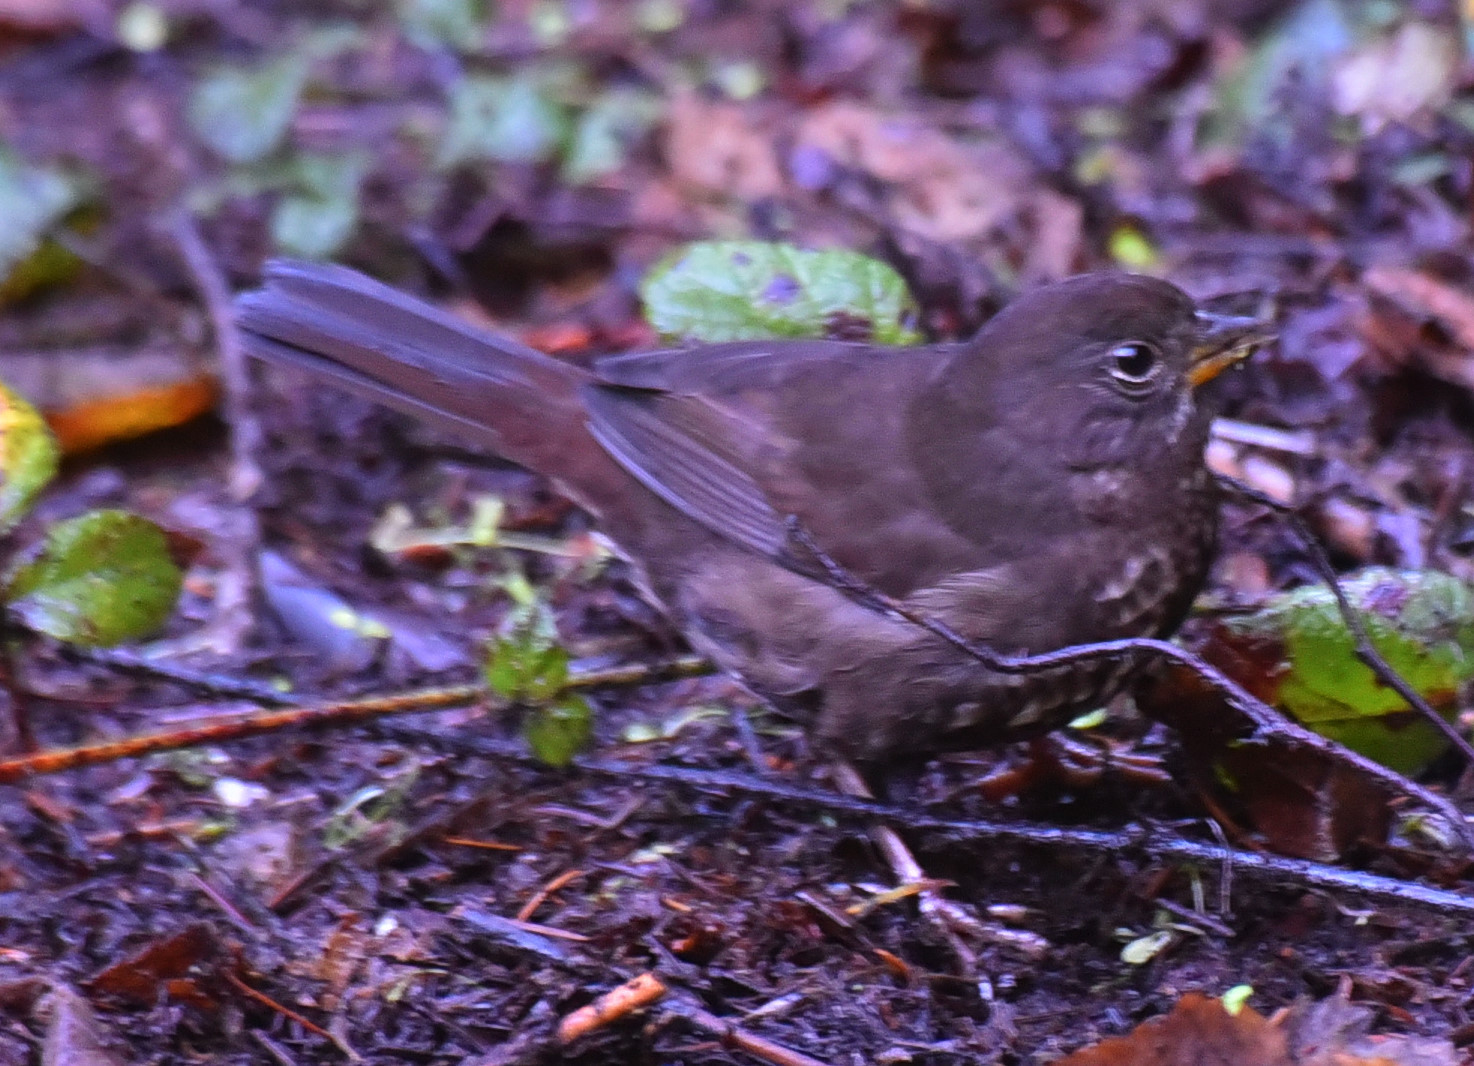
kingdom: Animalia
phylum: Chordata
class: Aves
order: Passeriformes
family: Passerellidae
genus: Passerella
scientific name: Passerella iliaca
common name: Fox sparrow
